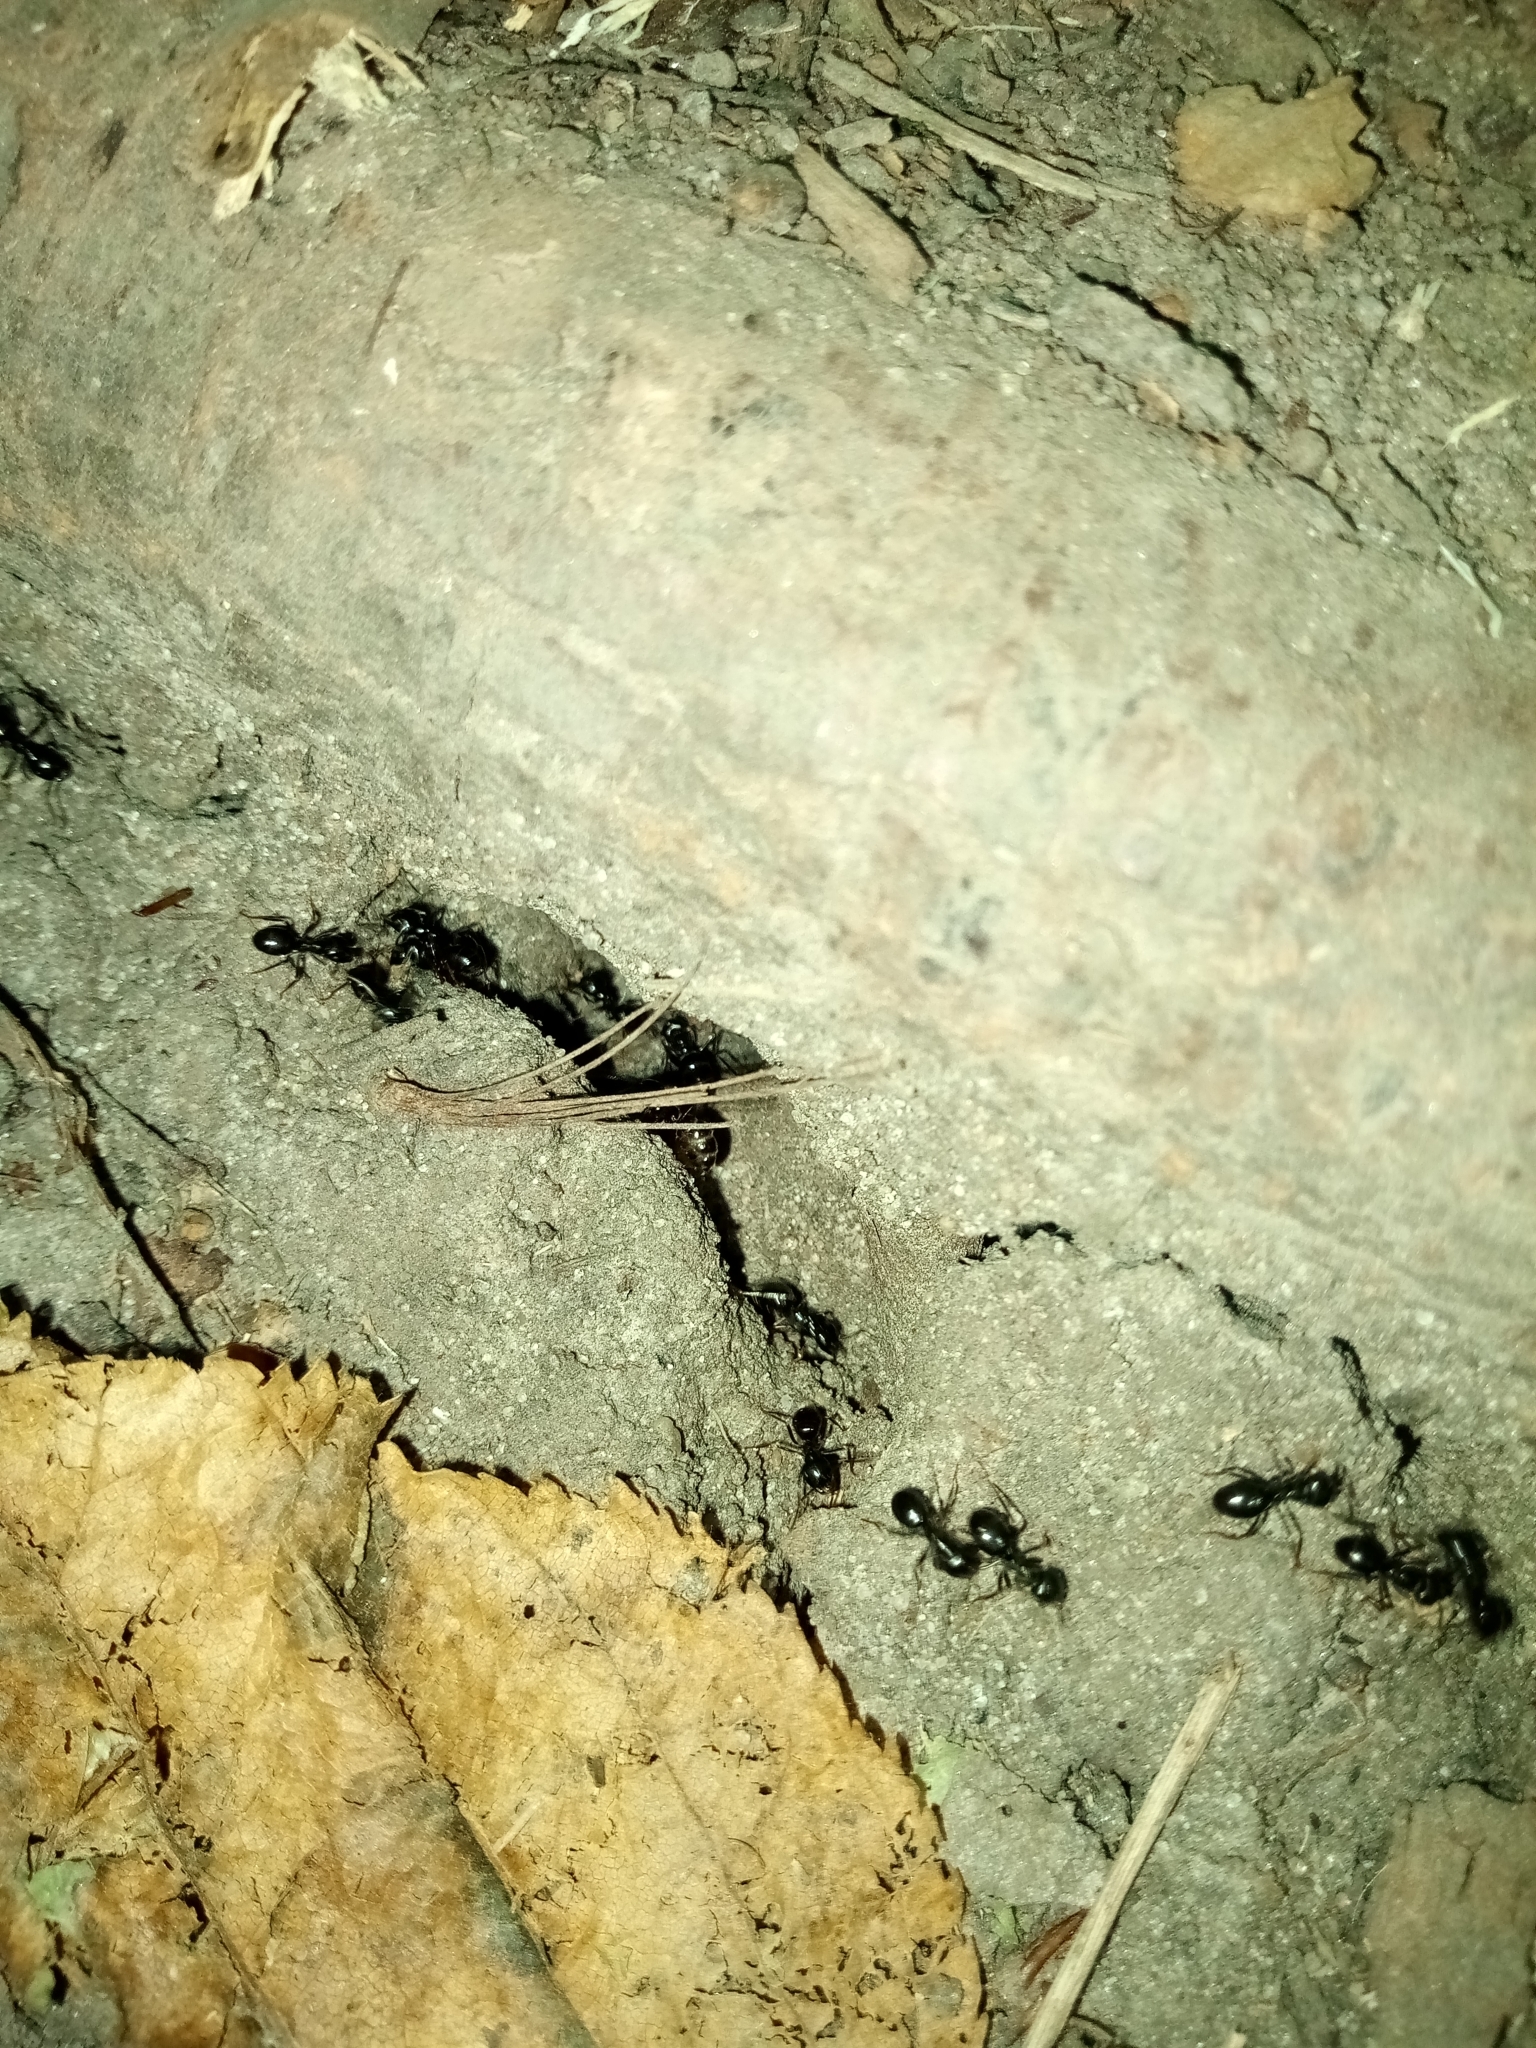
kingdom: Animalia
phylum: Arthropoda
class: Insecta
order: Hymenoptera
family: Formicidae
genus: Lasius
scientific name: Lasius fuliginosus
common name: Jet ant
